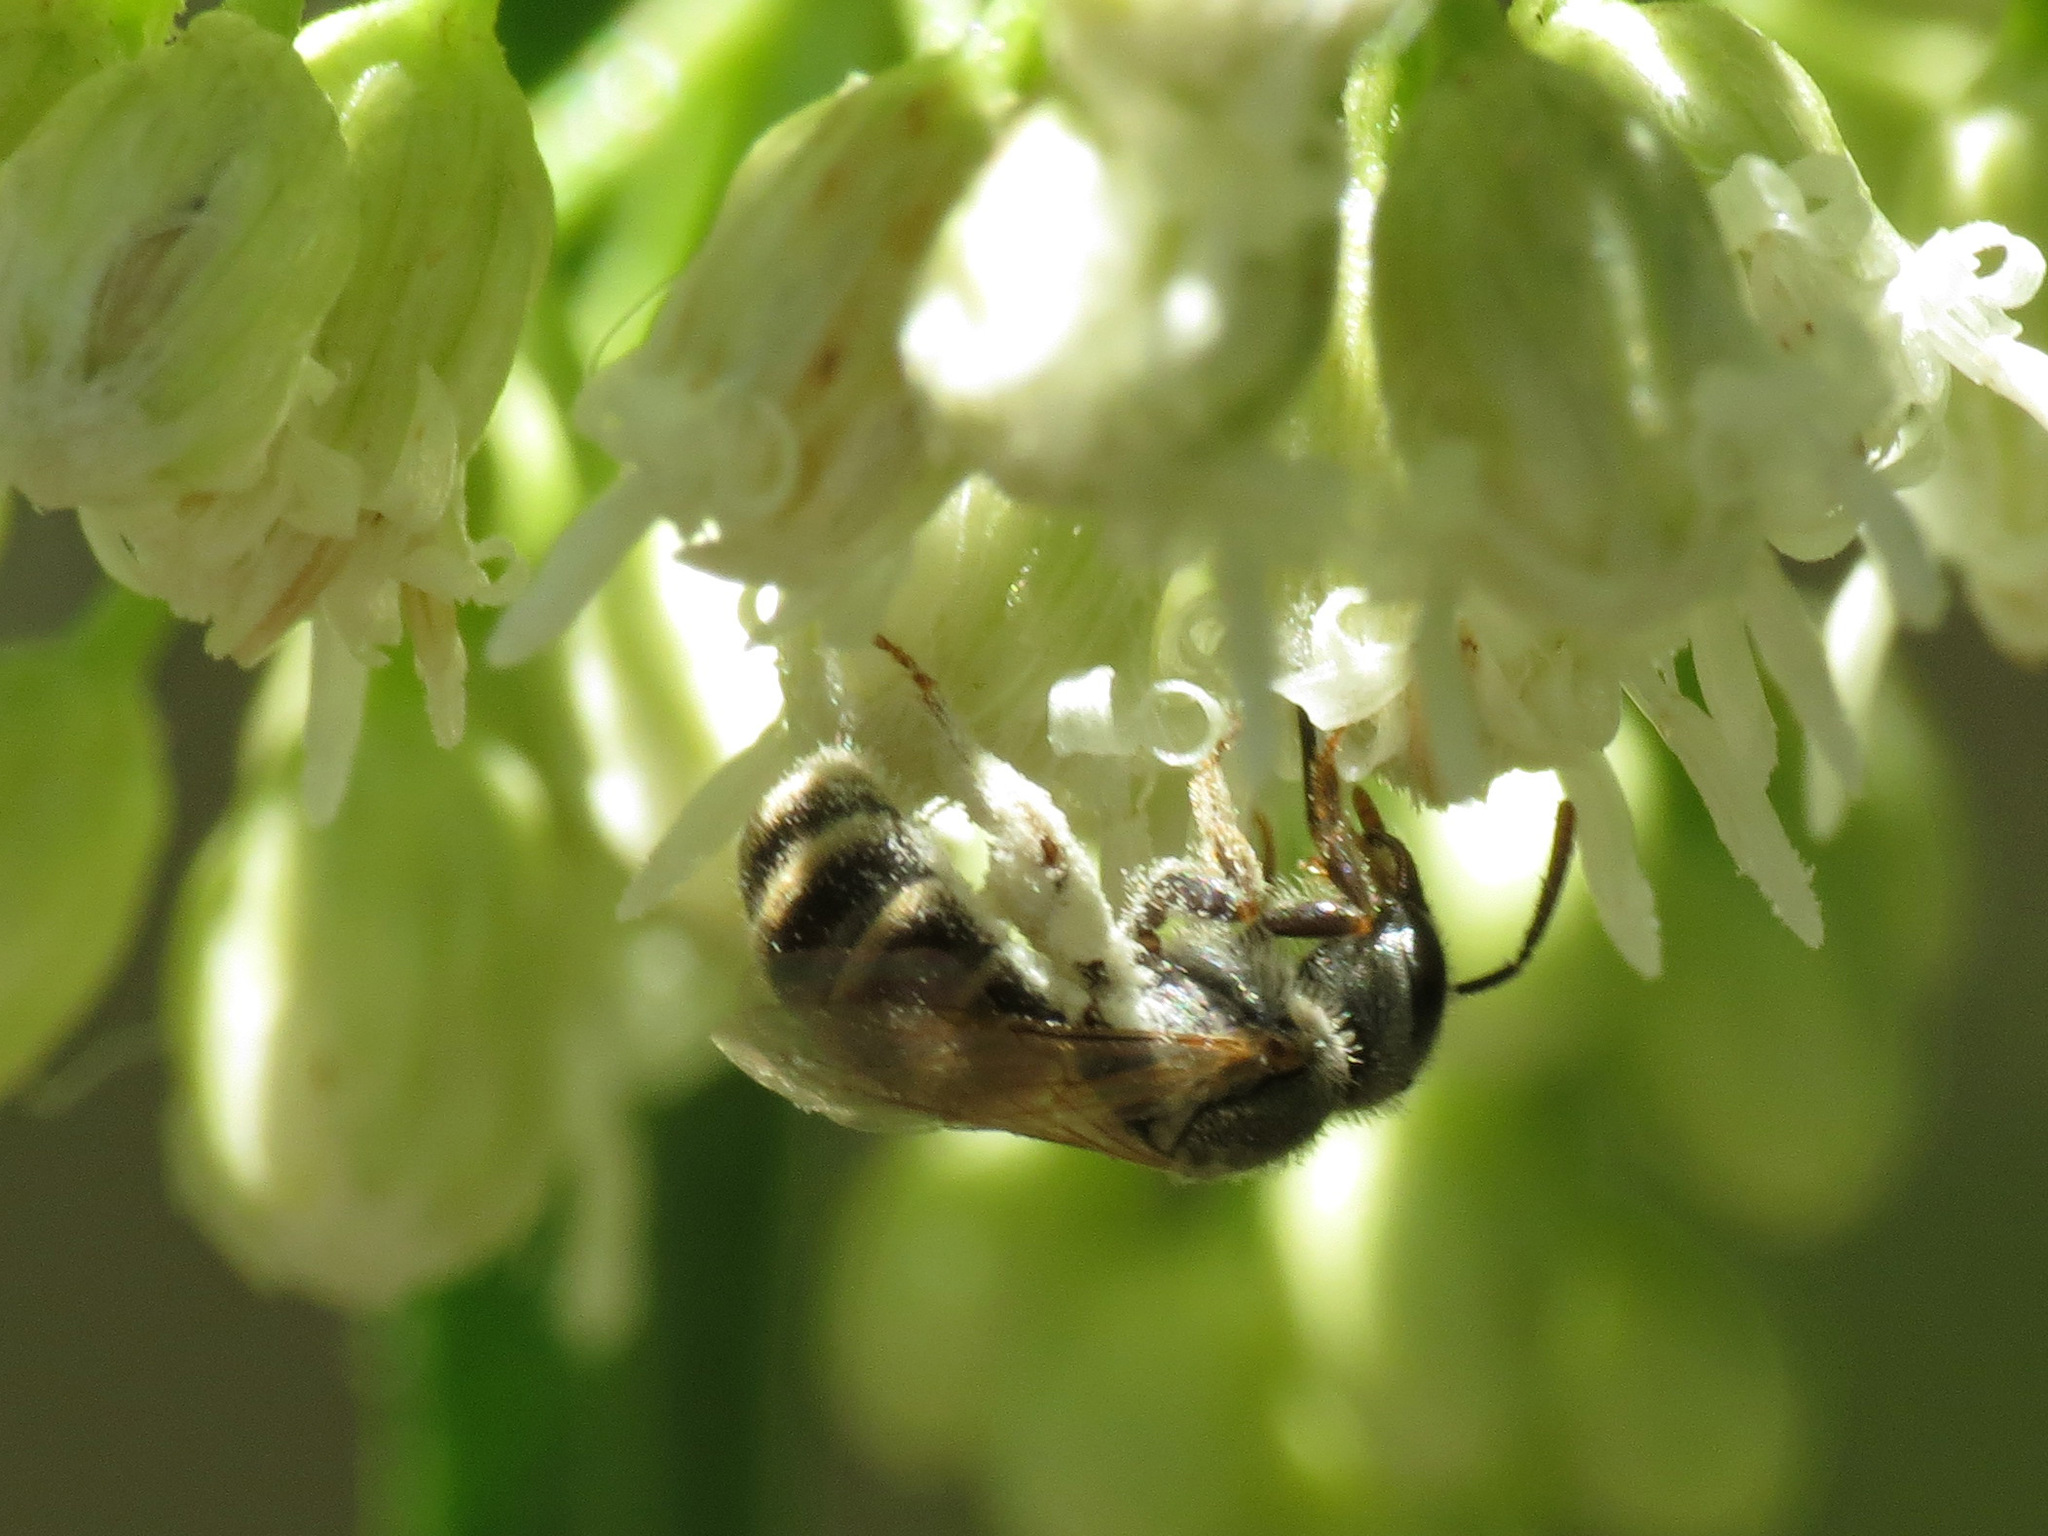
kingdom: Animalia
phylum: Arthropoda
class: Insecta
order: Hymenoptera
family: Halictidae
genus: Halictus
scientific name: Halictus tripartitus
